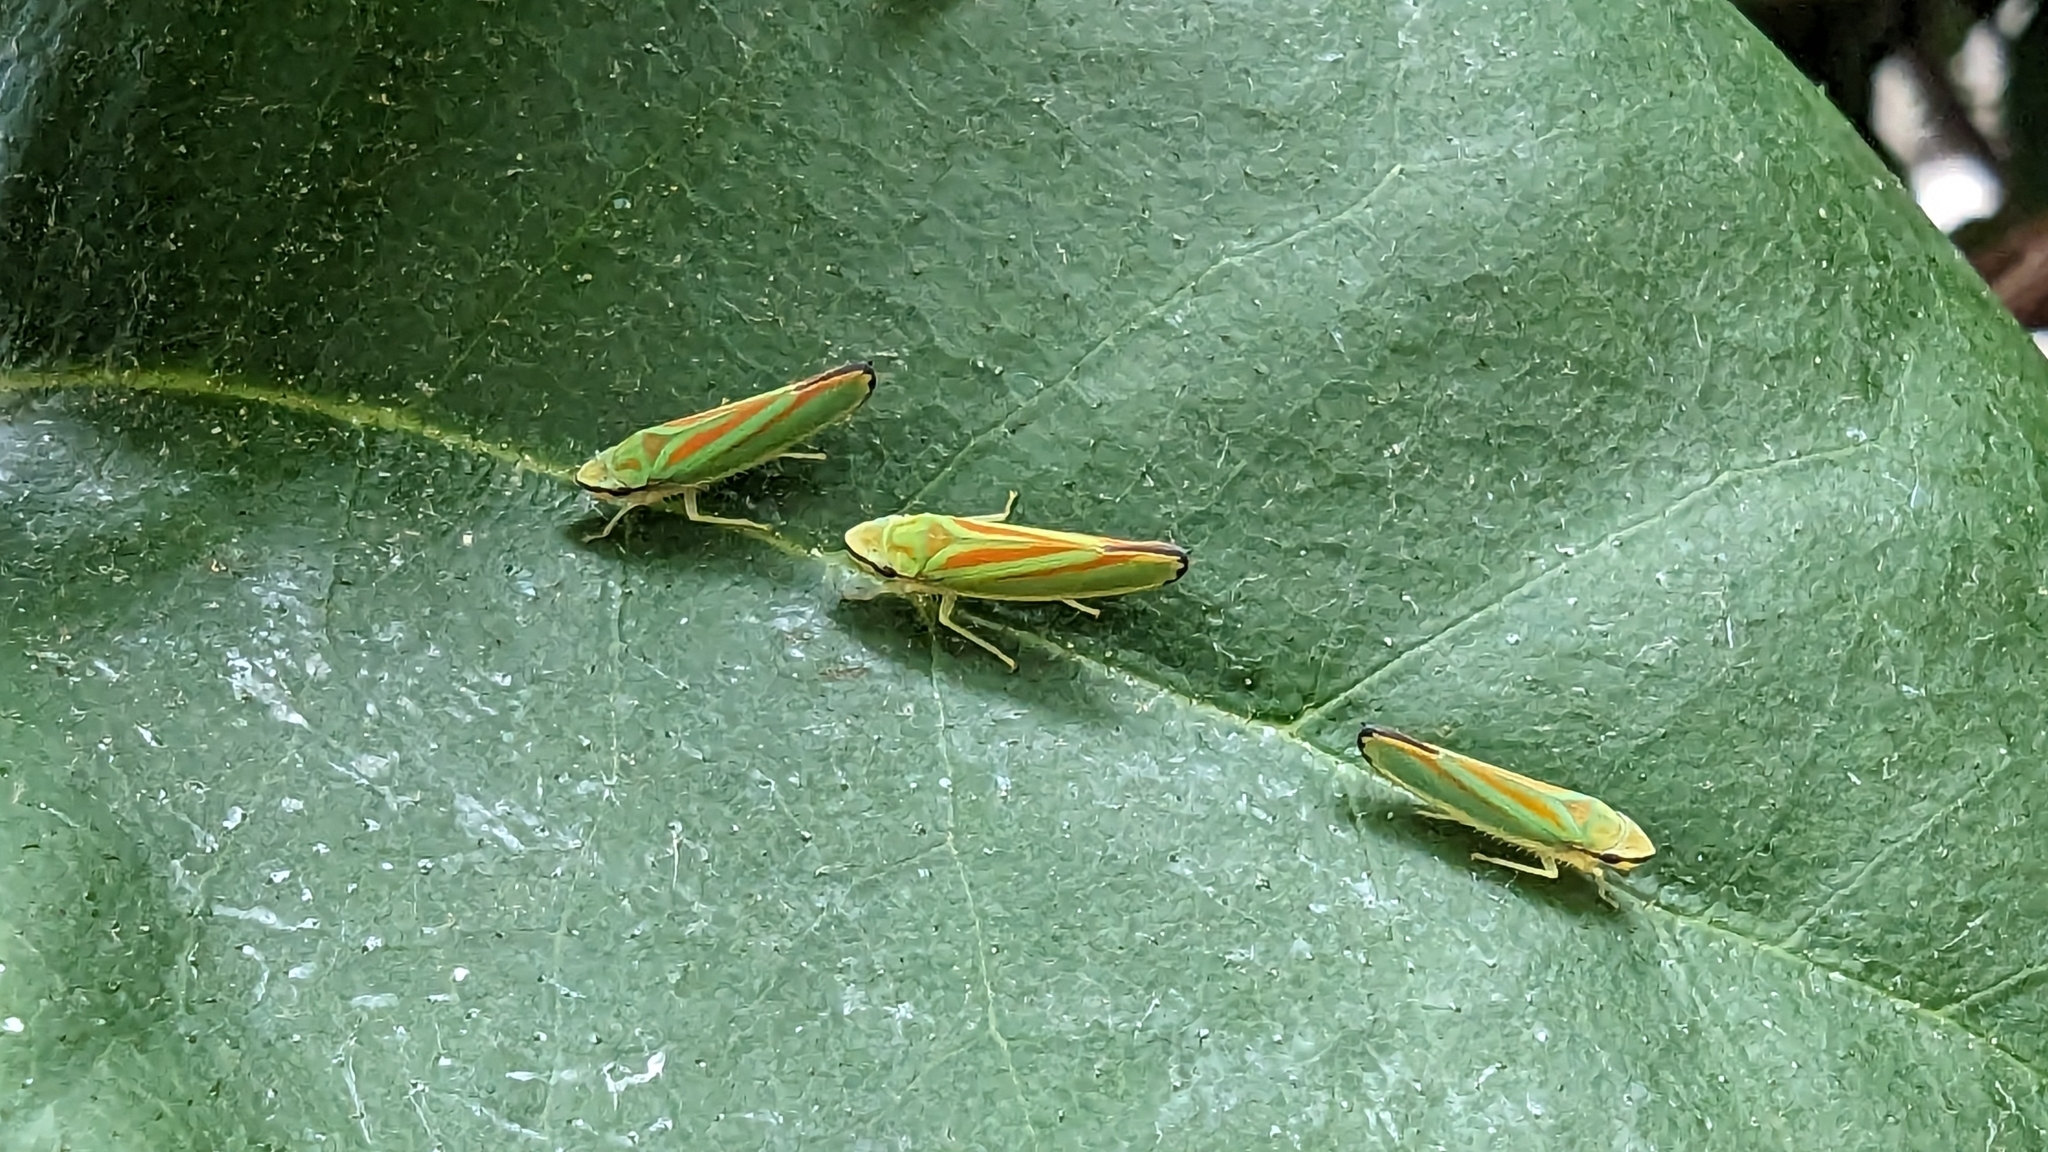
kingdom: Animalia
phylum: Arthropoda
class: Insecta
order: Hemiptera
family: Cicadellidae
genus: Graphocephala
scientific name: Graphocephala fennahi
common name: Rhododendron leafhopper
